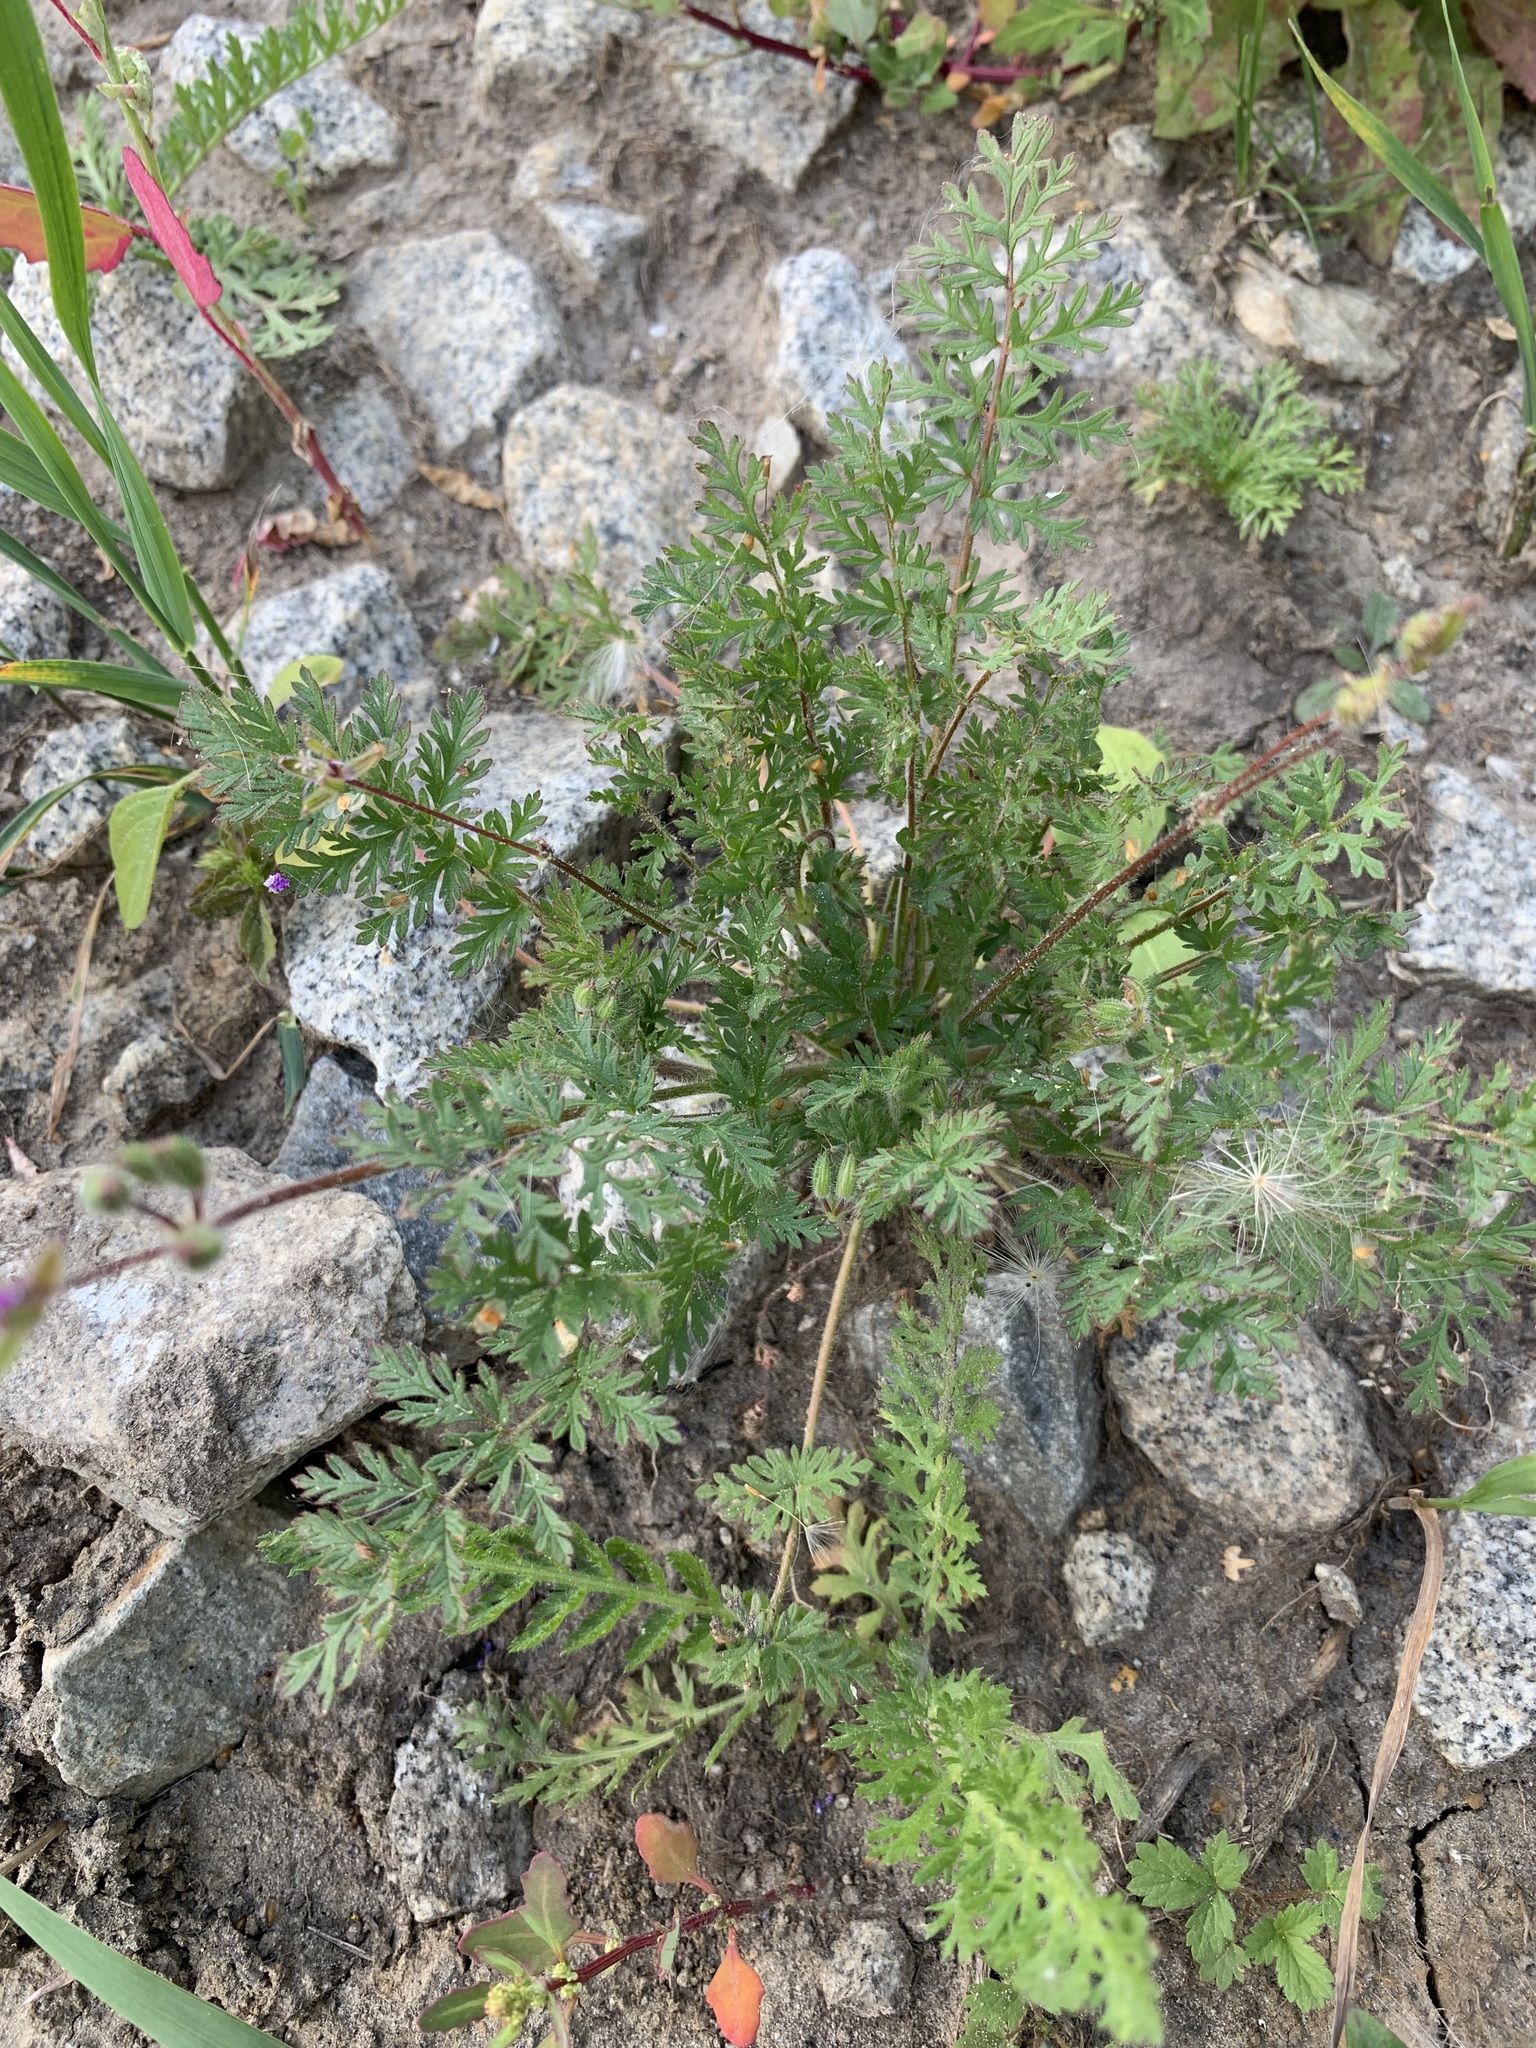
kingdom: Plantae
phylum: Tracheophyta
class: Magnoliopsida
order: Geraniales
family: Geraniaceae
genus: Erodium
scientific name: Erodium cicutarium
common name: Common stork's-bill
